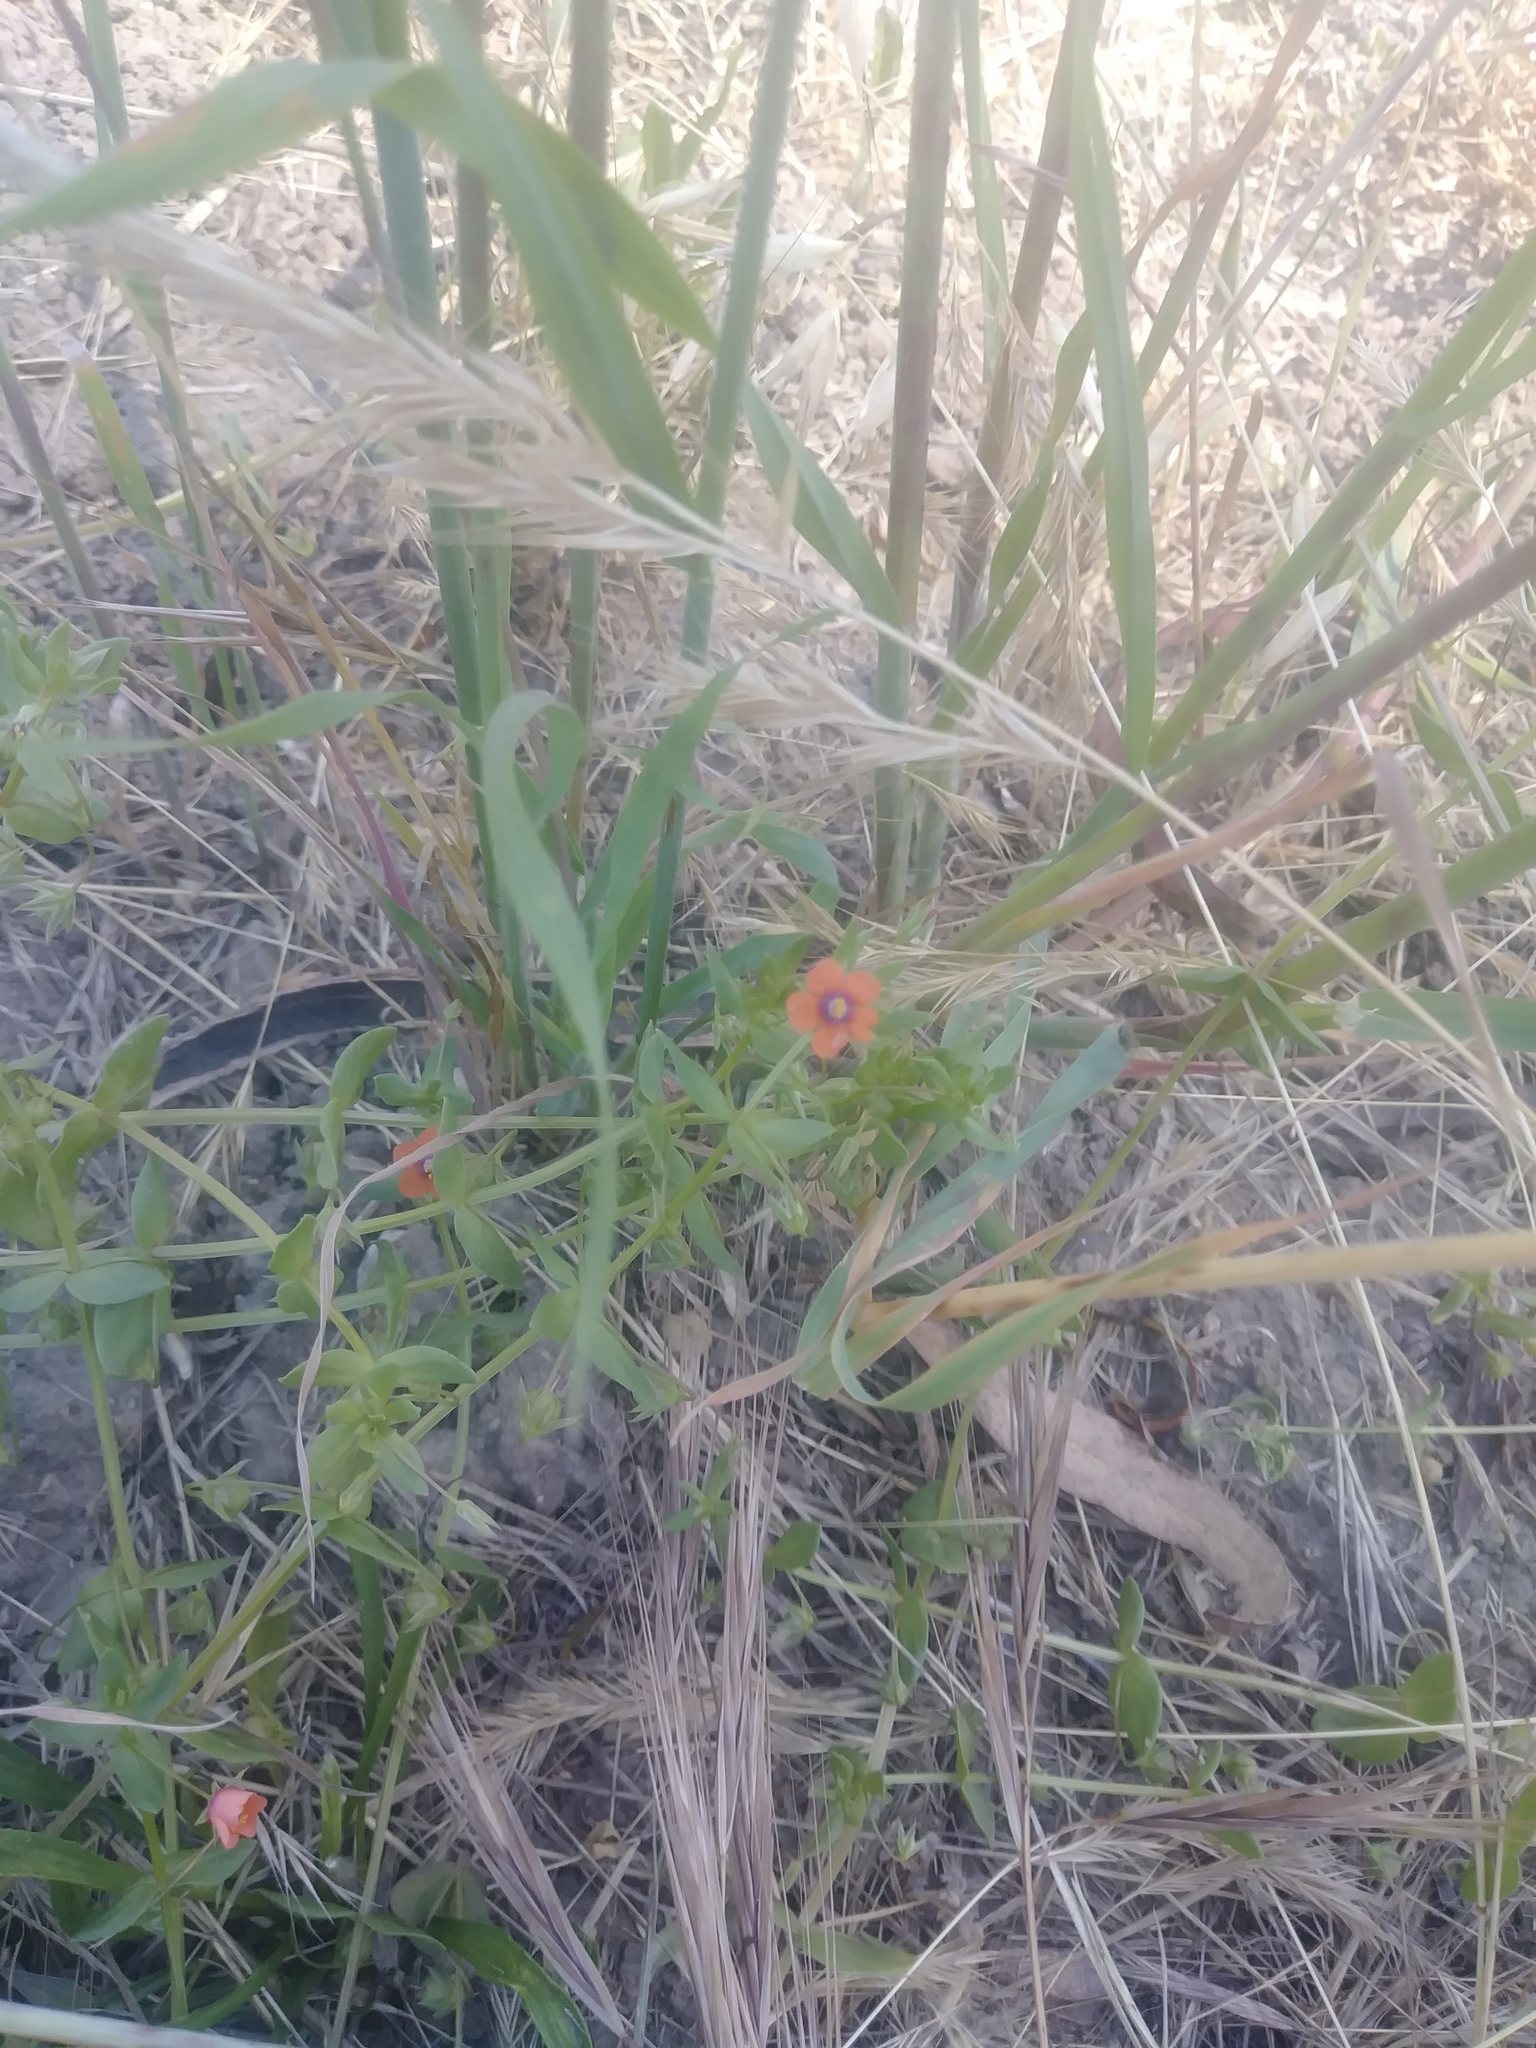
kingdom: Plantae
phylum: Tracheophyta
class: Magnoliopsida
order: Ericales
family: Primulaceae
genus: Lysimachia
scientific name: Lysimachia arvensis
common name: Scarlet pimpernel
